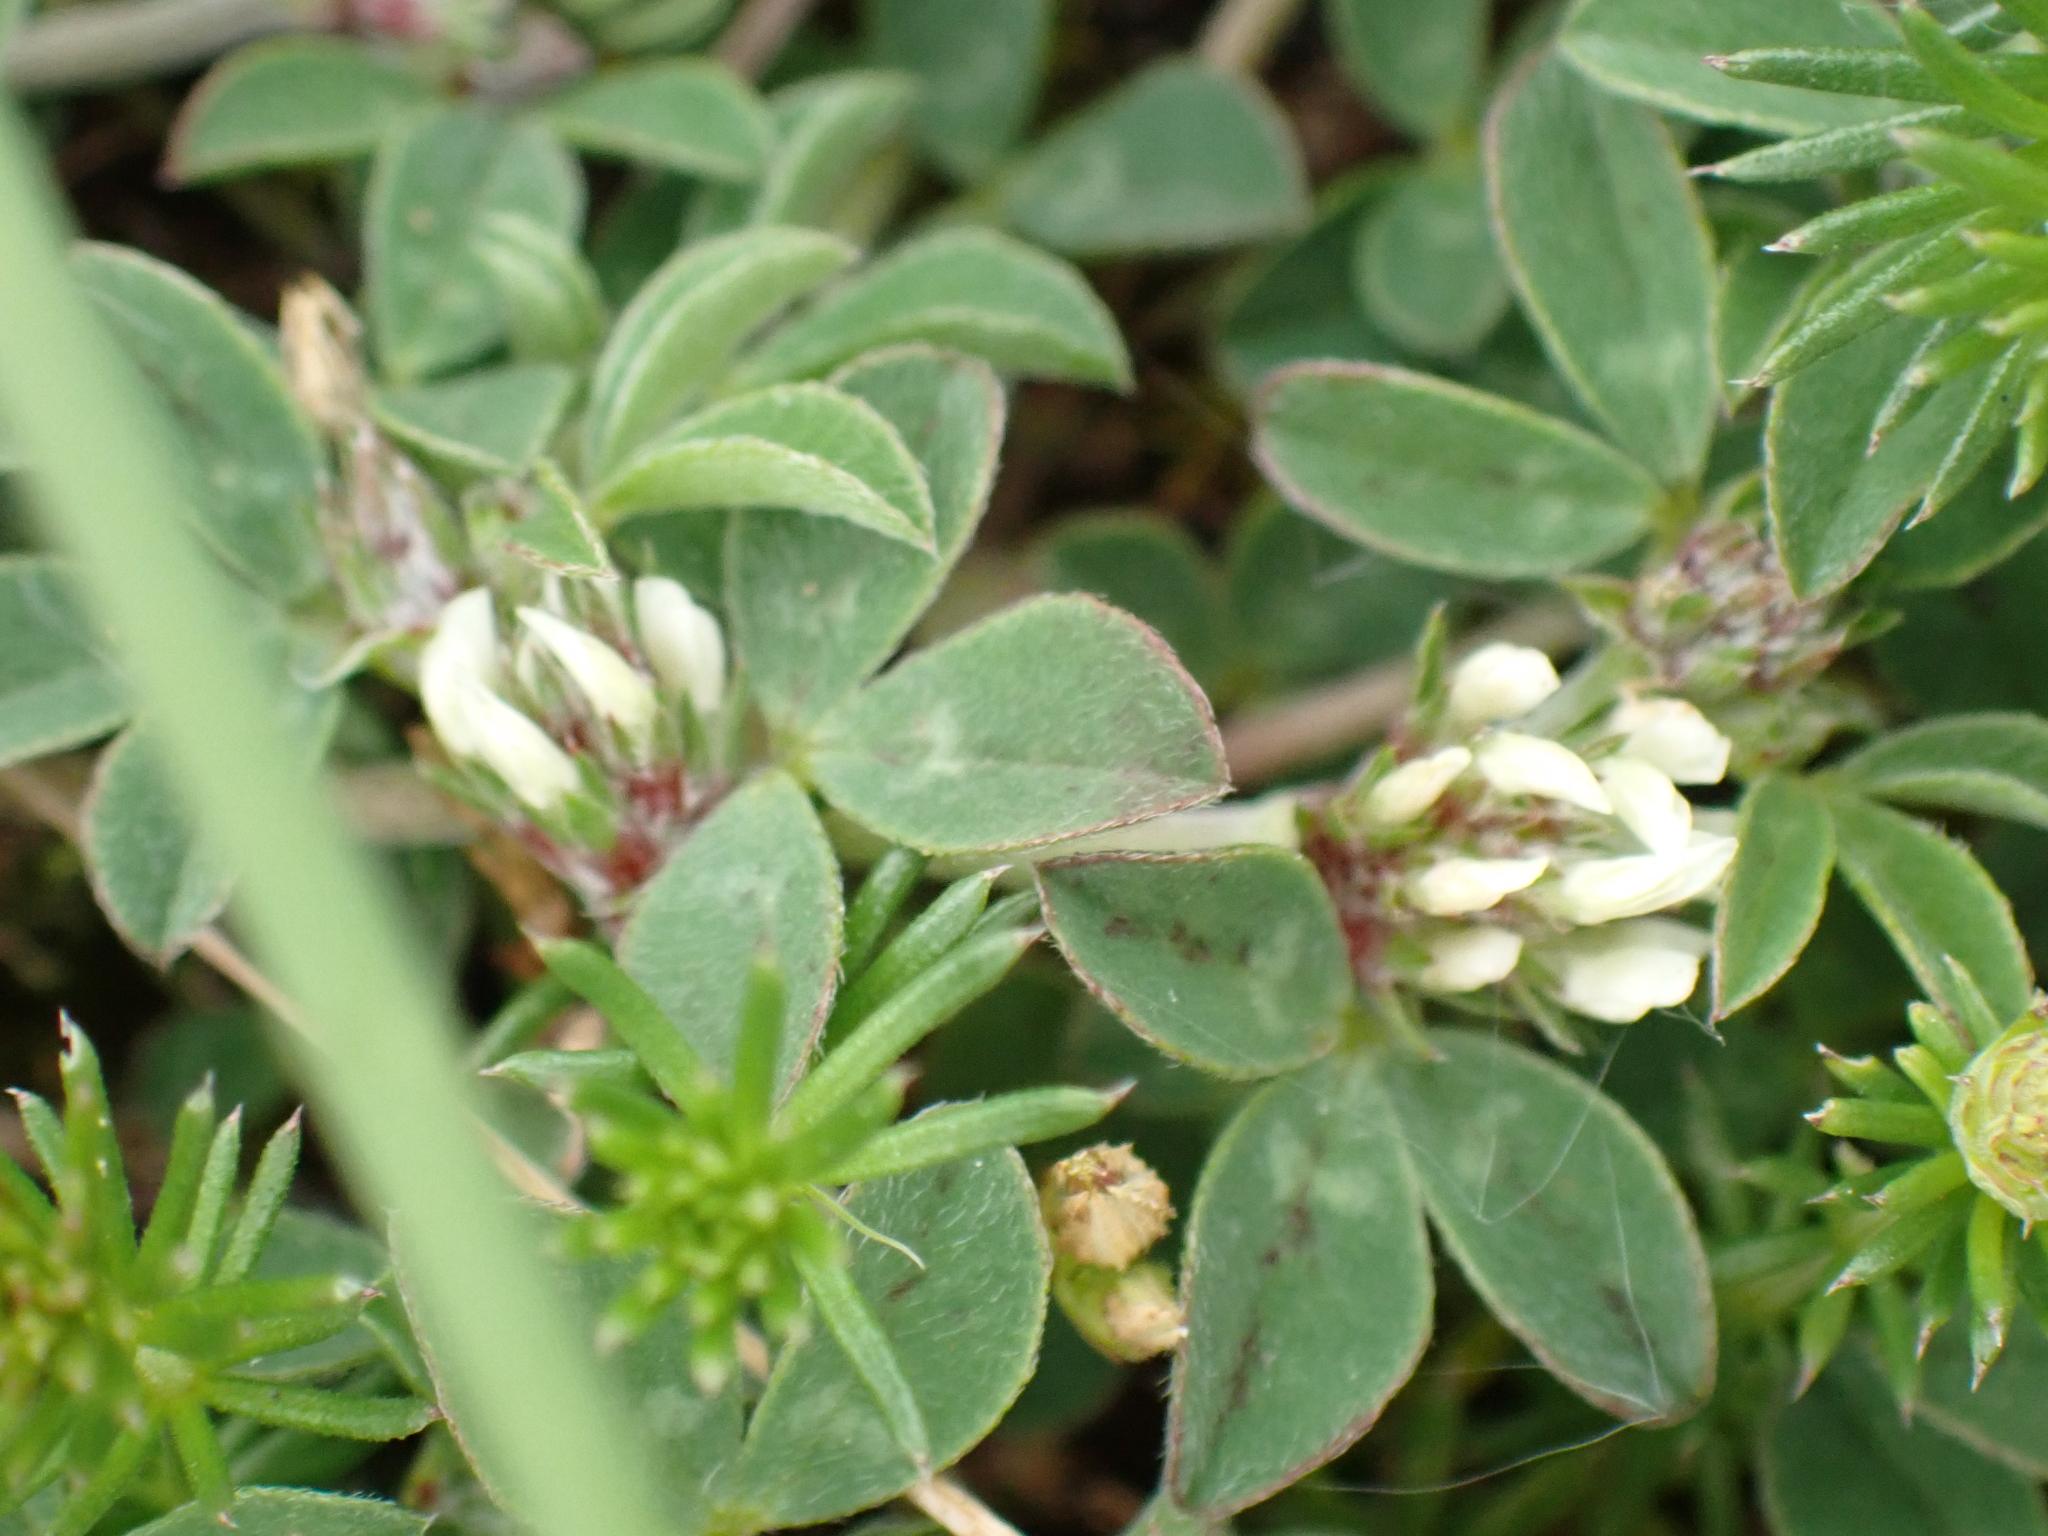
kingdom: Plantae
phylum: Tracheophyta
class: Magnoliopsida
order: Fabales
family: Fabaceae
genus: Trifolium
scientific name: Trifolium scabrum
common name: Rough clover
